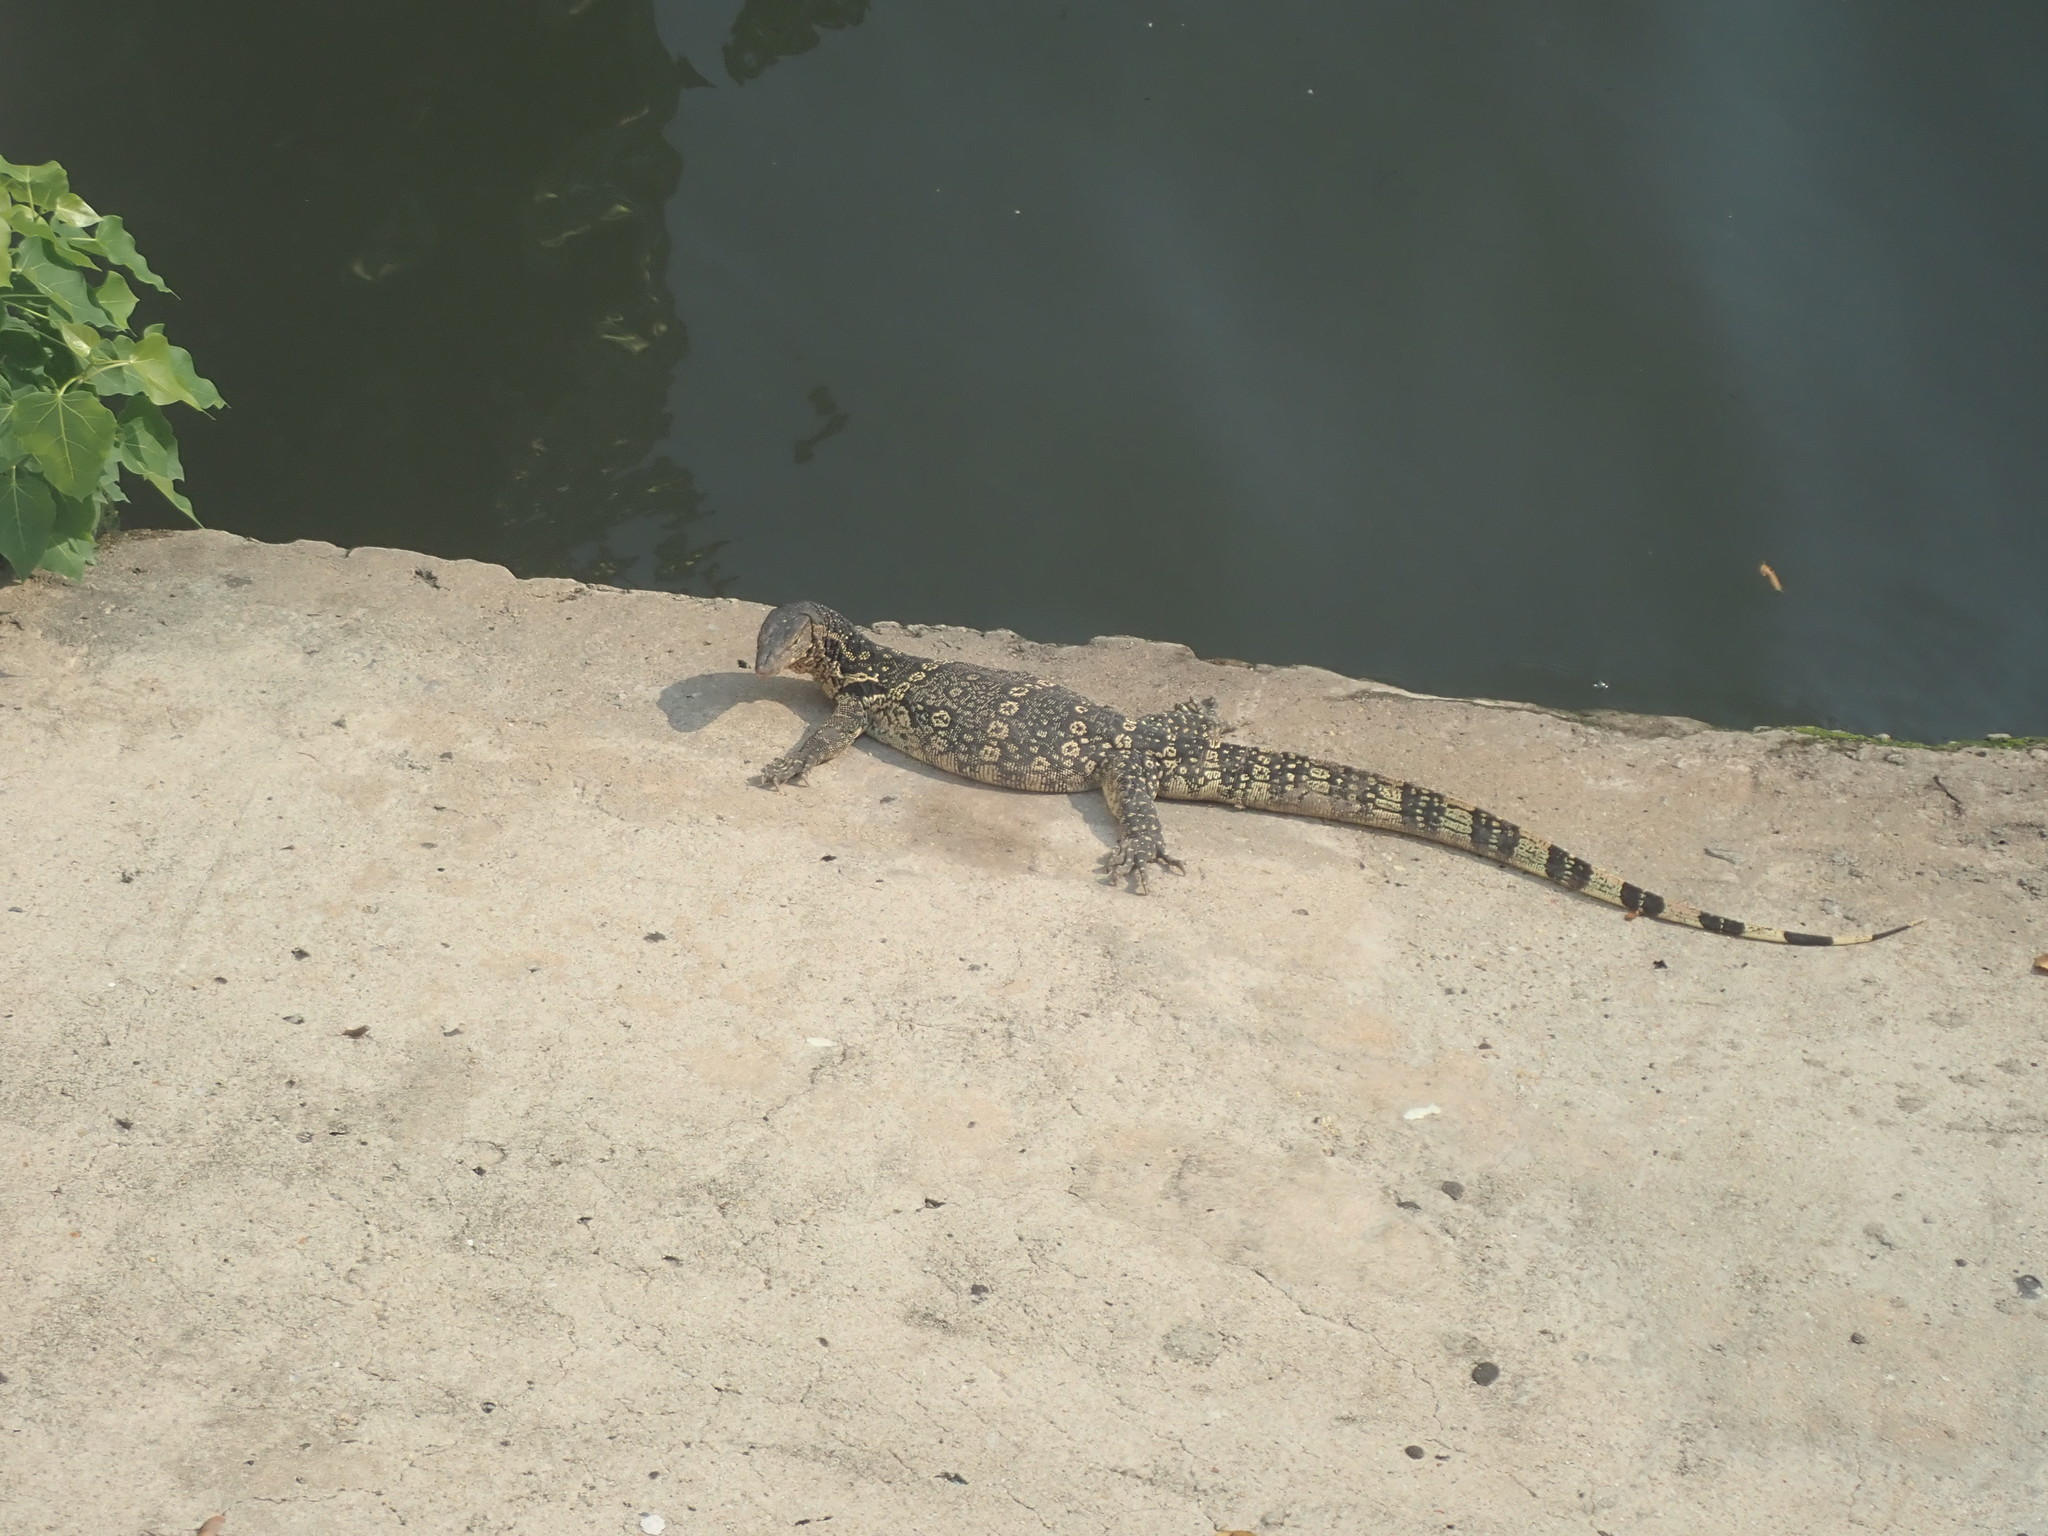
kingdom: Animalia
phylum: Chordata
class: Squamata
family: Varanidae
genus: Varanus
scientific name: Varanus salvator
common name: Common water monitor
